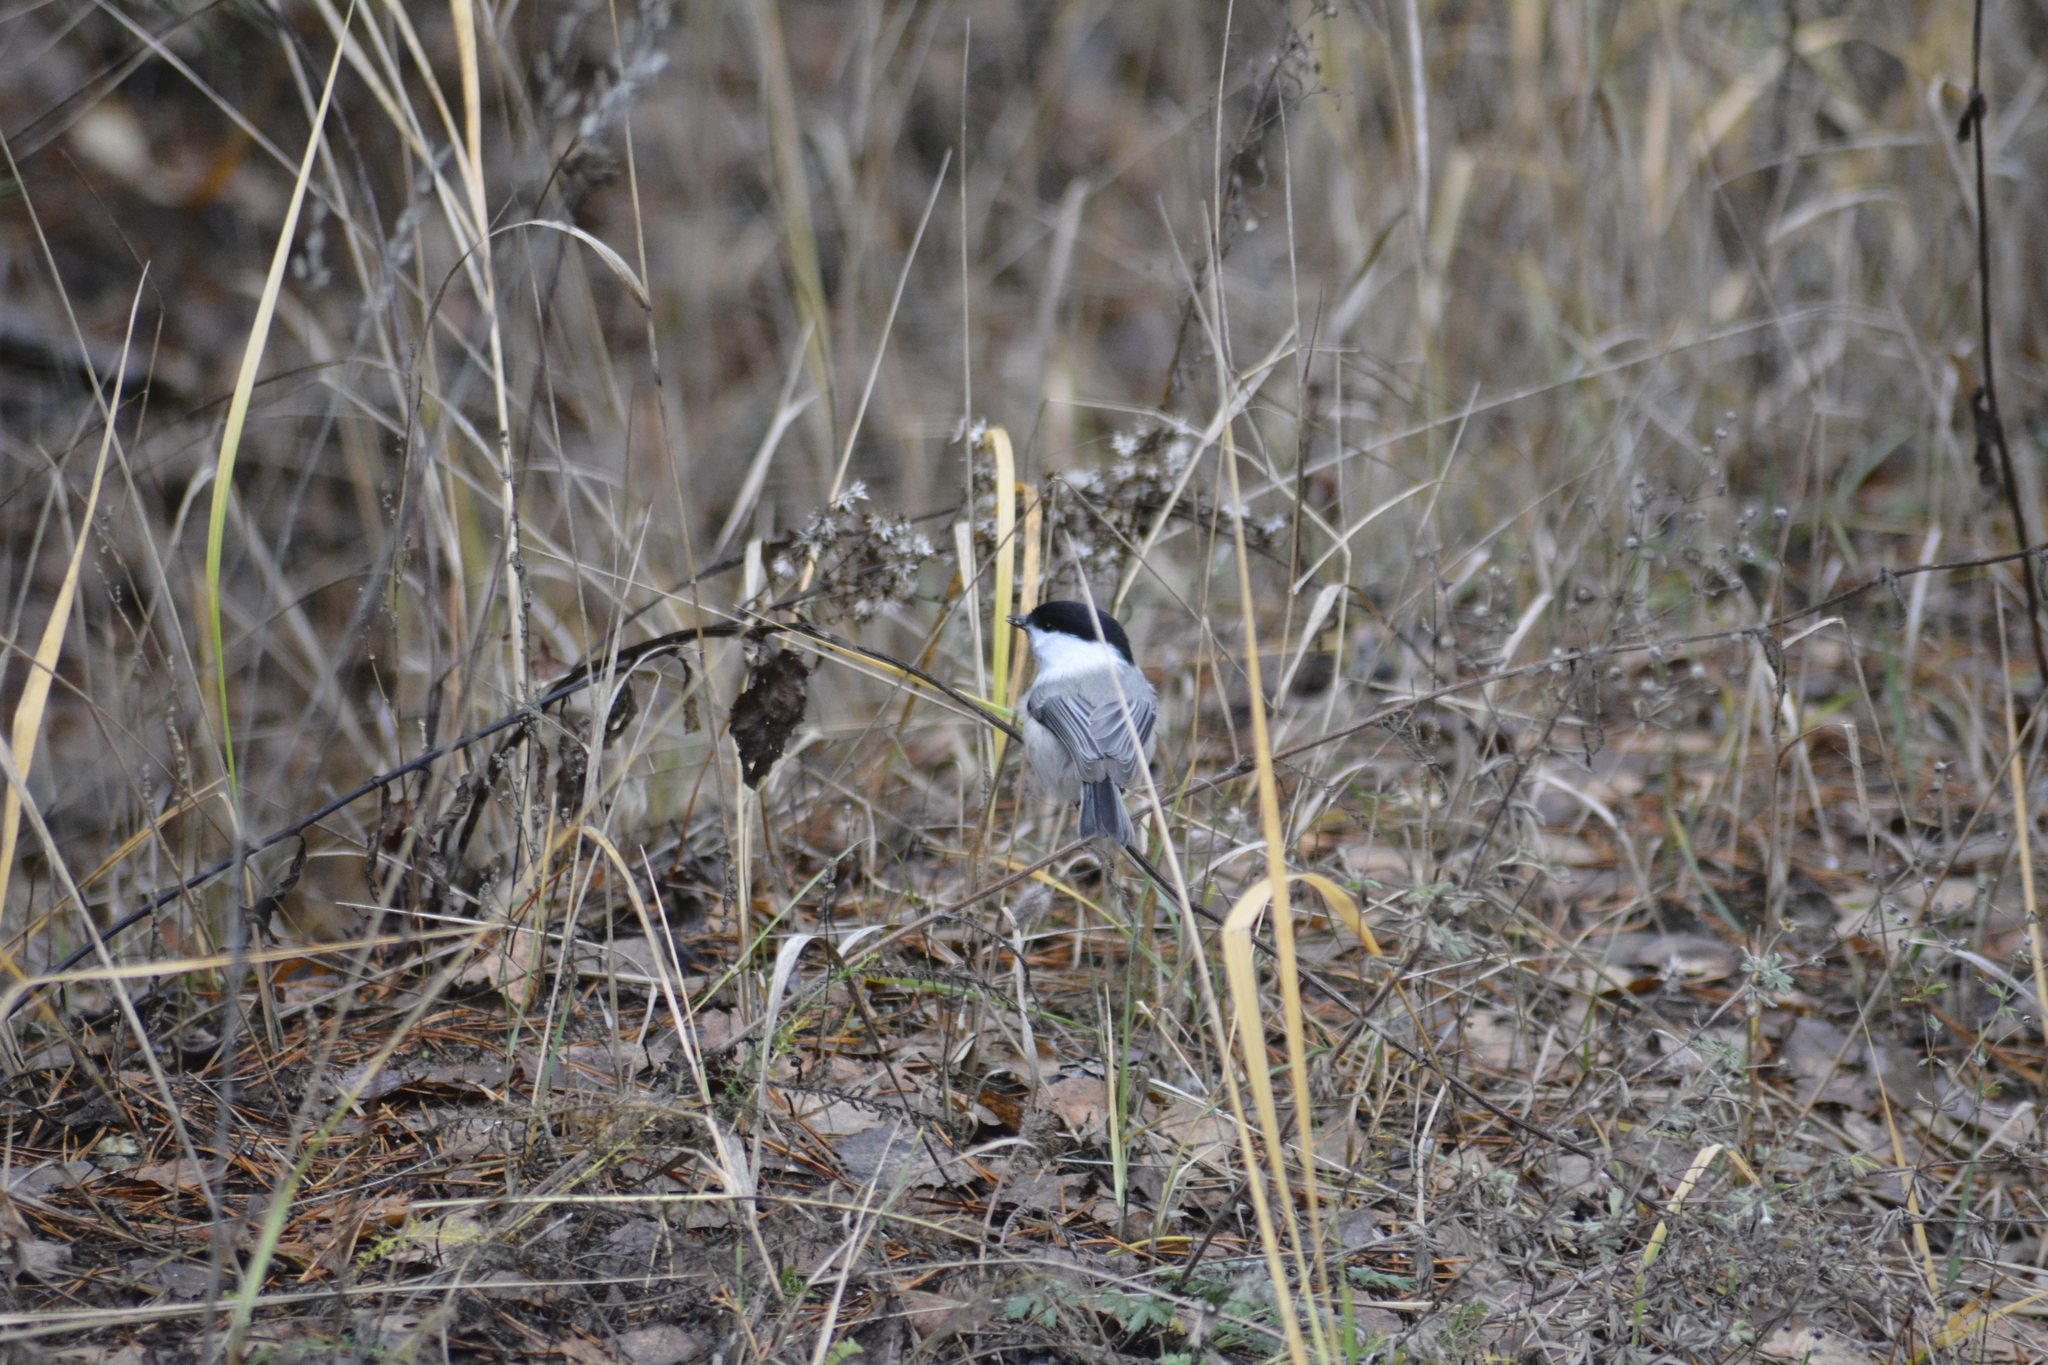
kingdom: Animalia
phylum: Chordata
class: Aves
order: Passeriformes
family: Paridae
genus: Poecile
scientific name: Poecile montanus
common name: Willow tit
